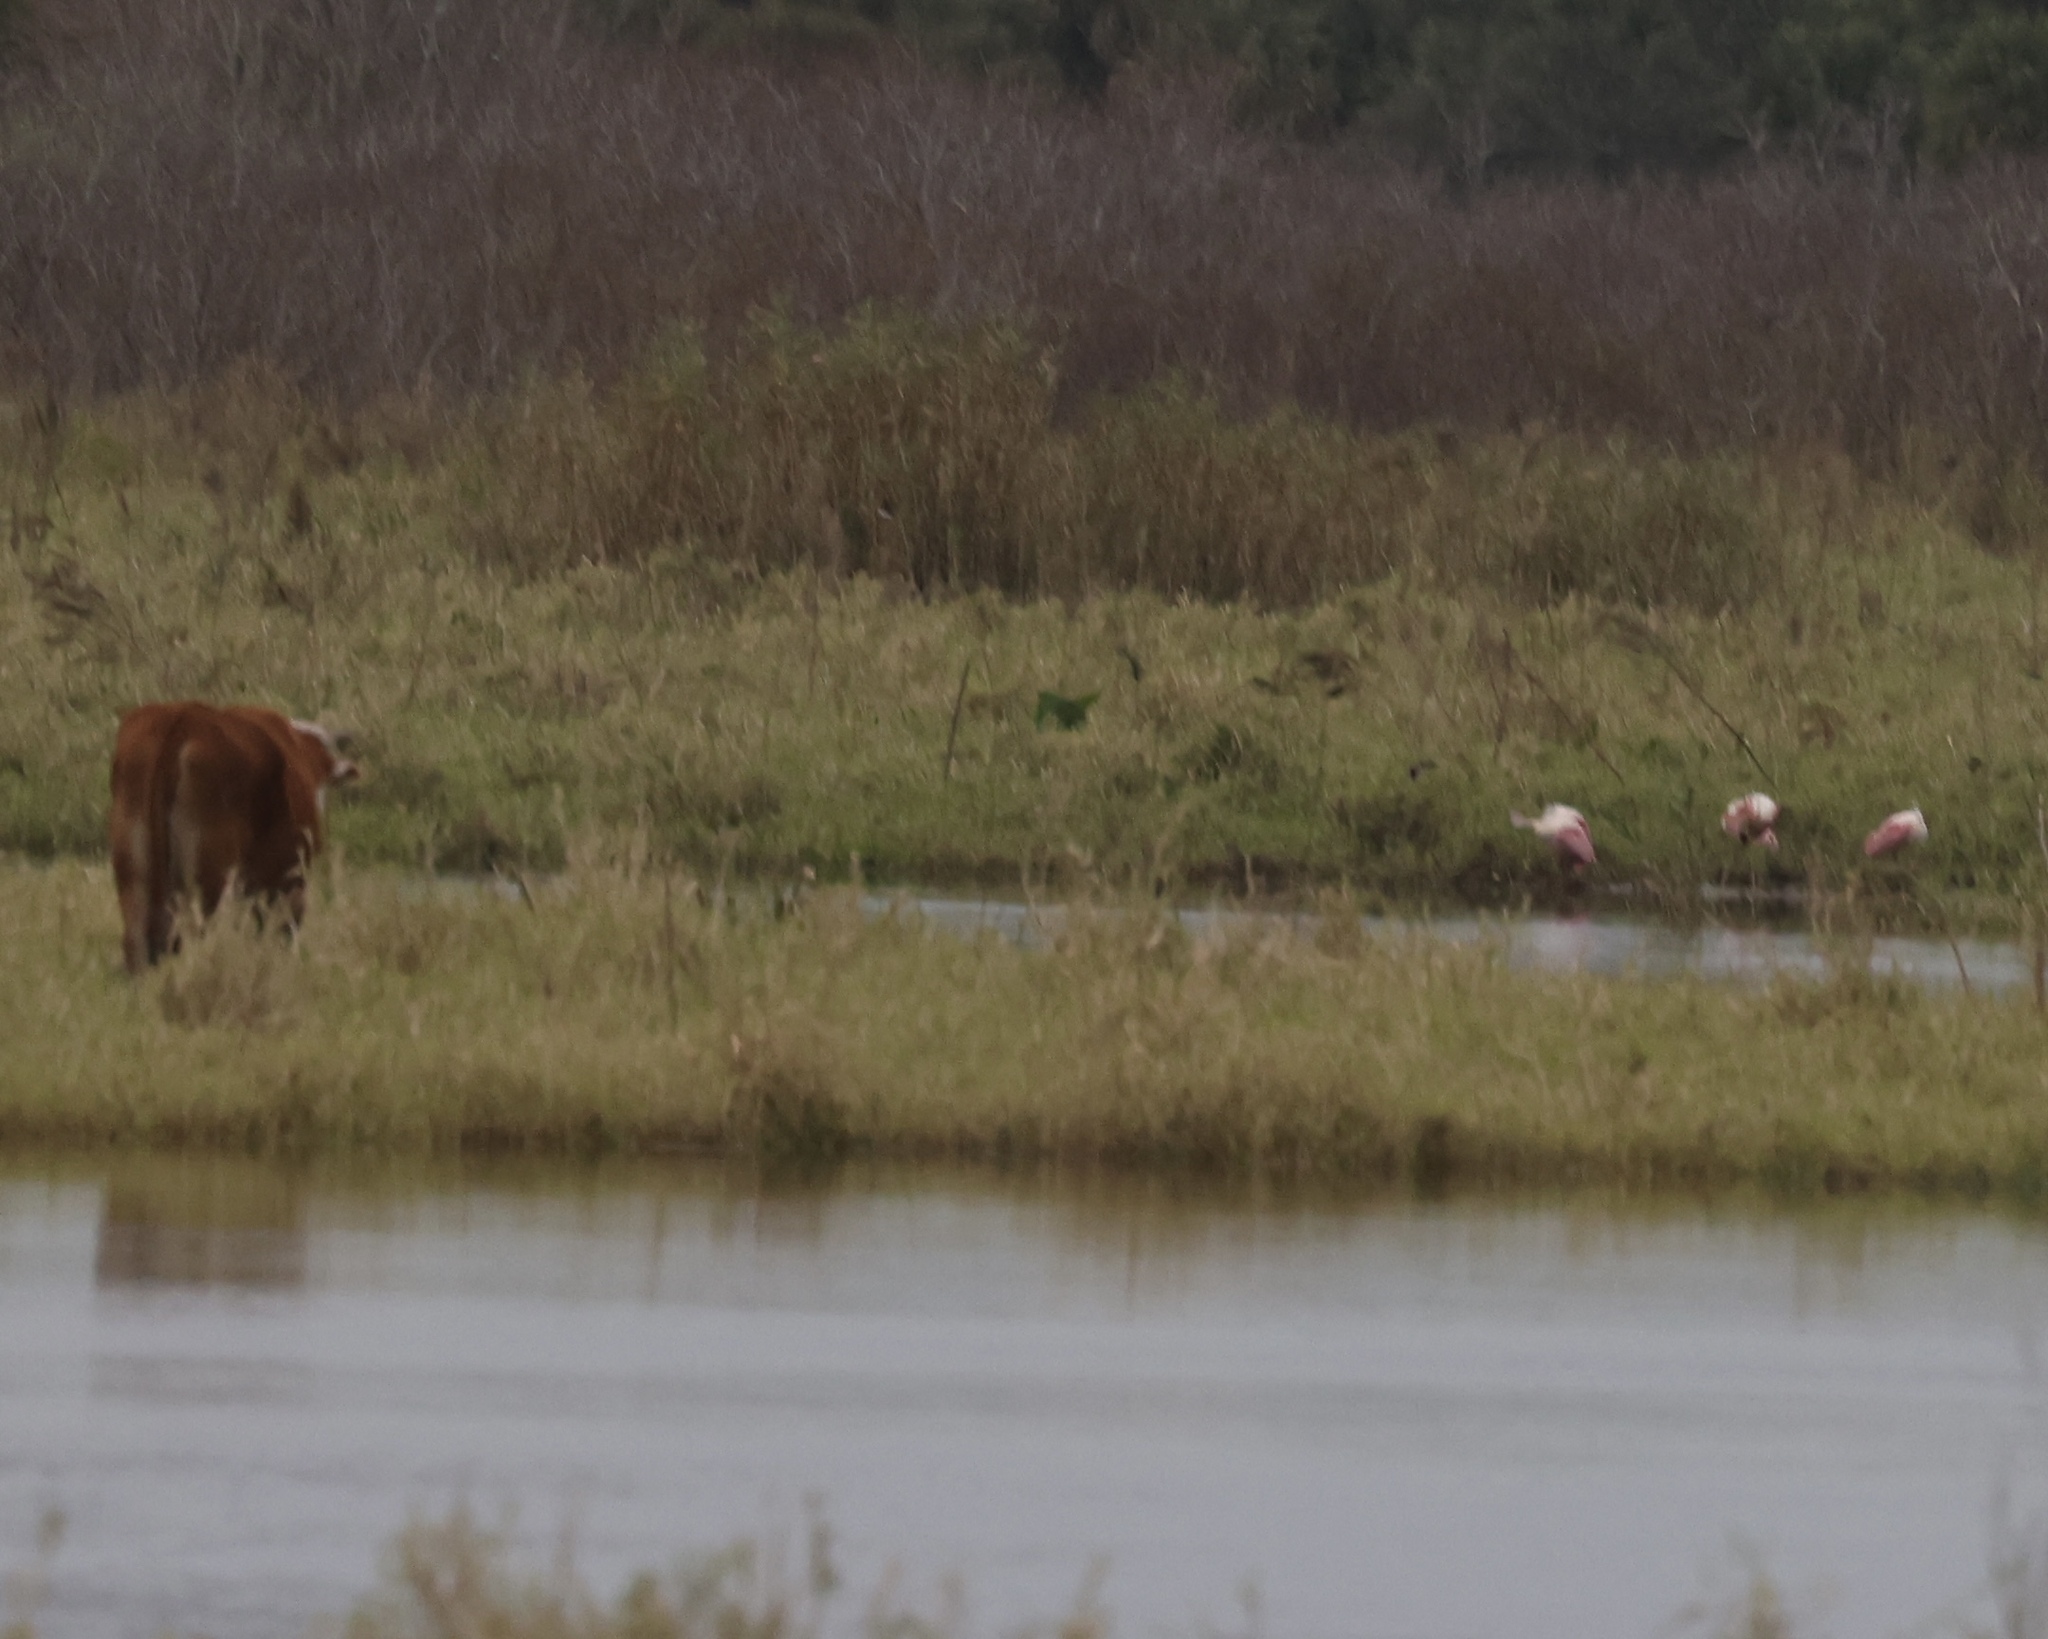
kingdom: Animalia
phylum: Chordata
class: Aves
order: Pelecaniformes
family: Threskiornithidae
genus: Platalea
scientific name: Platalea ajaja
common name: Roseate spoonbill
